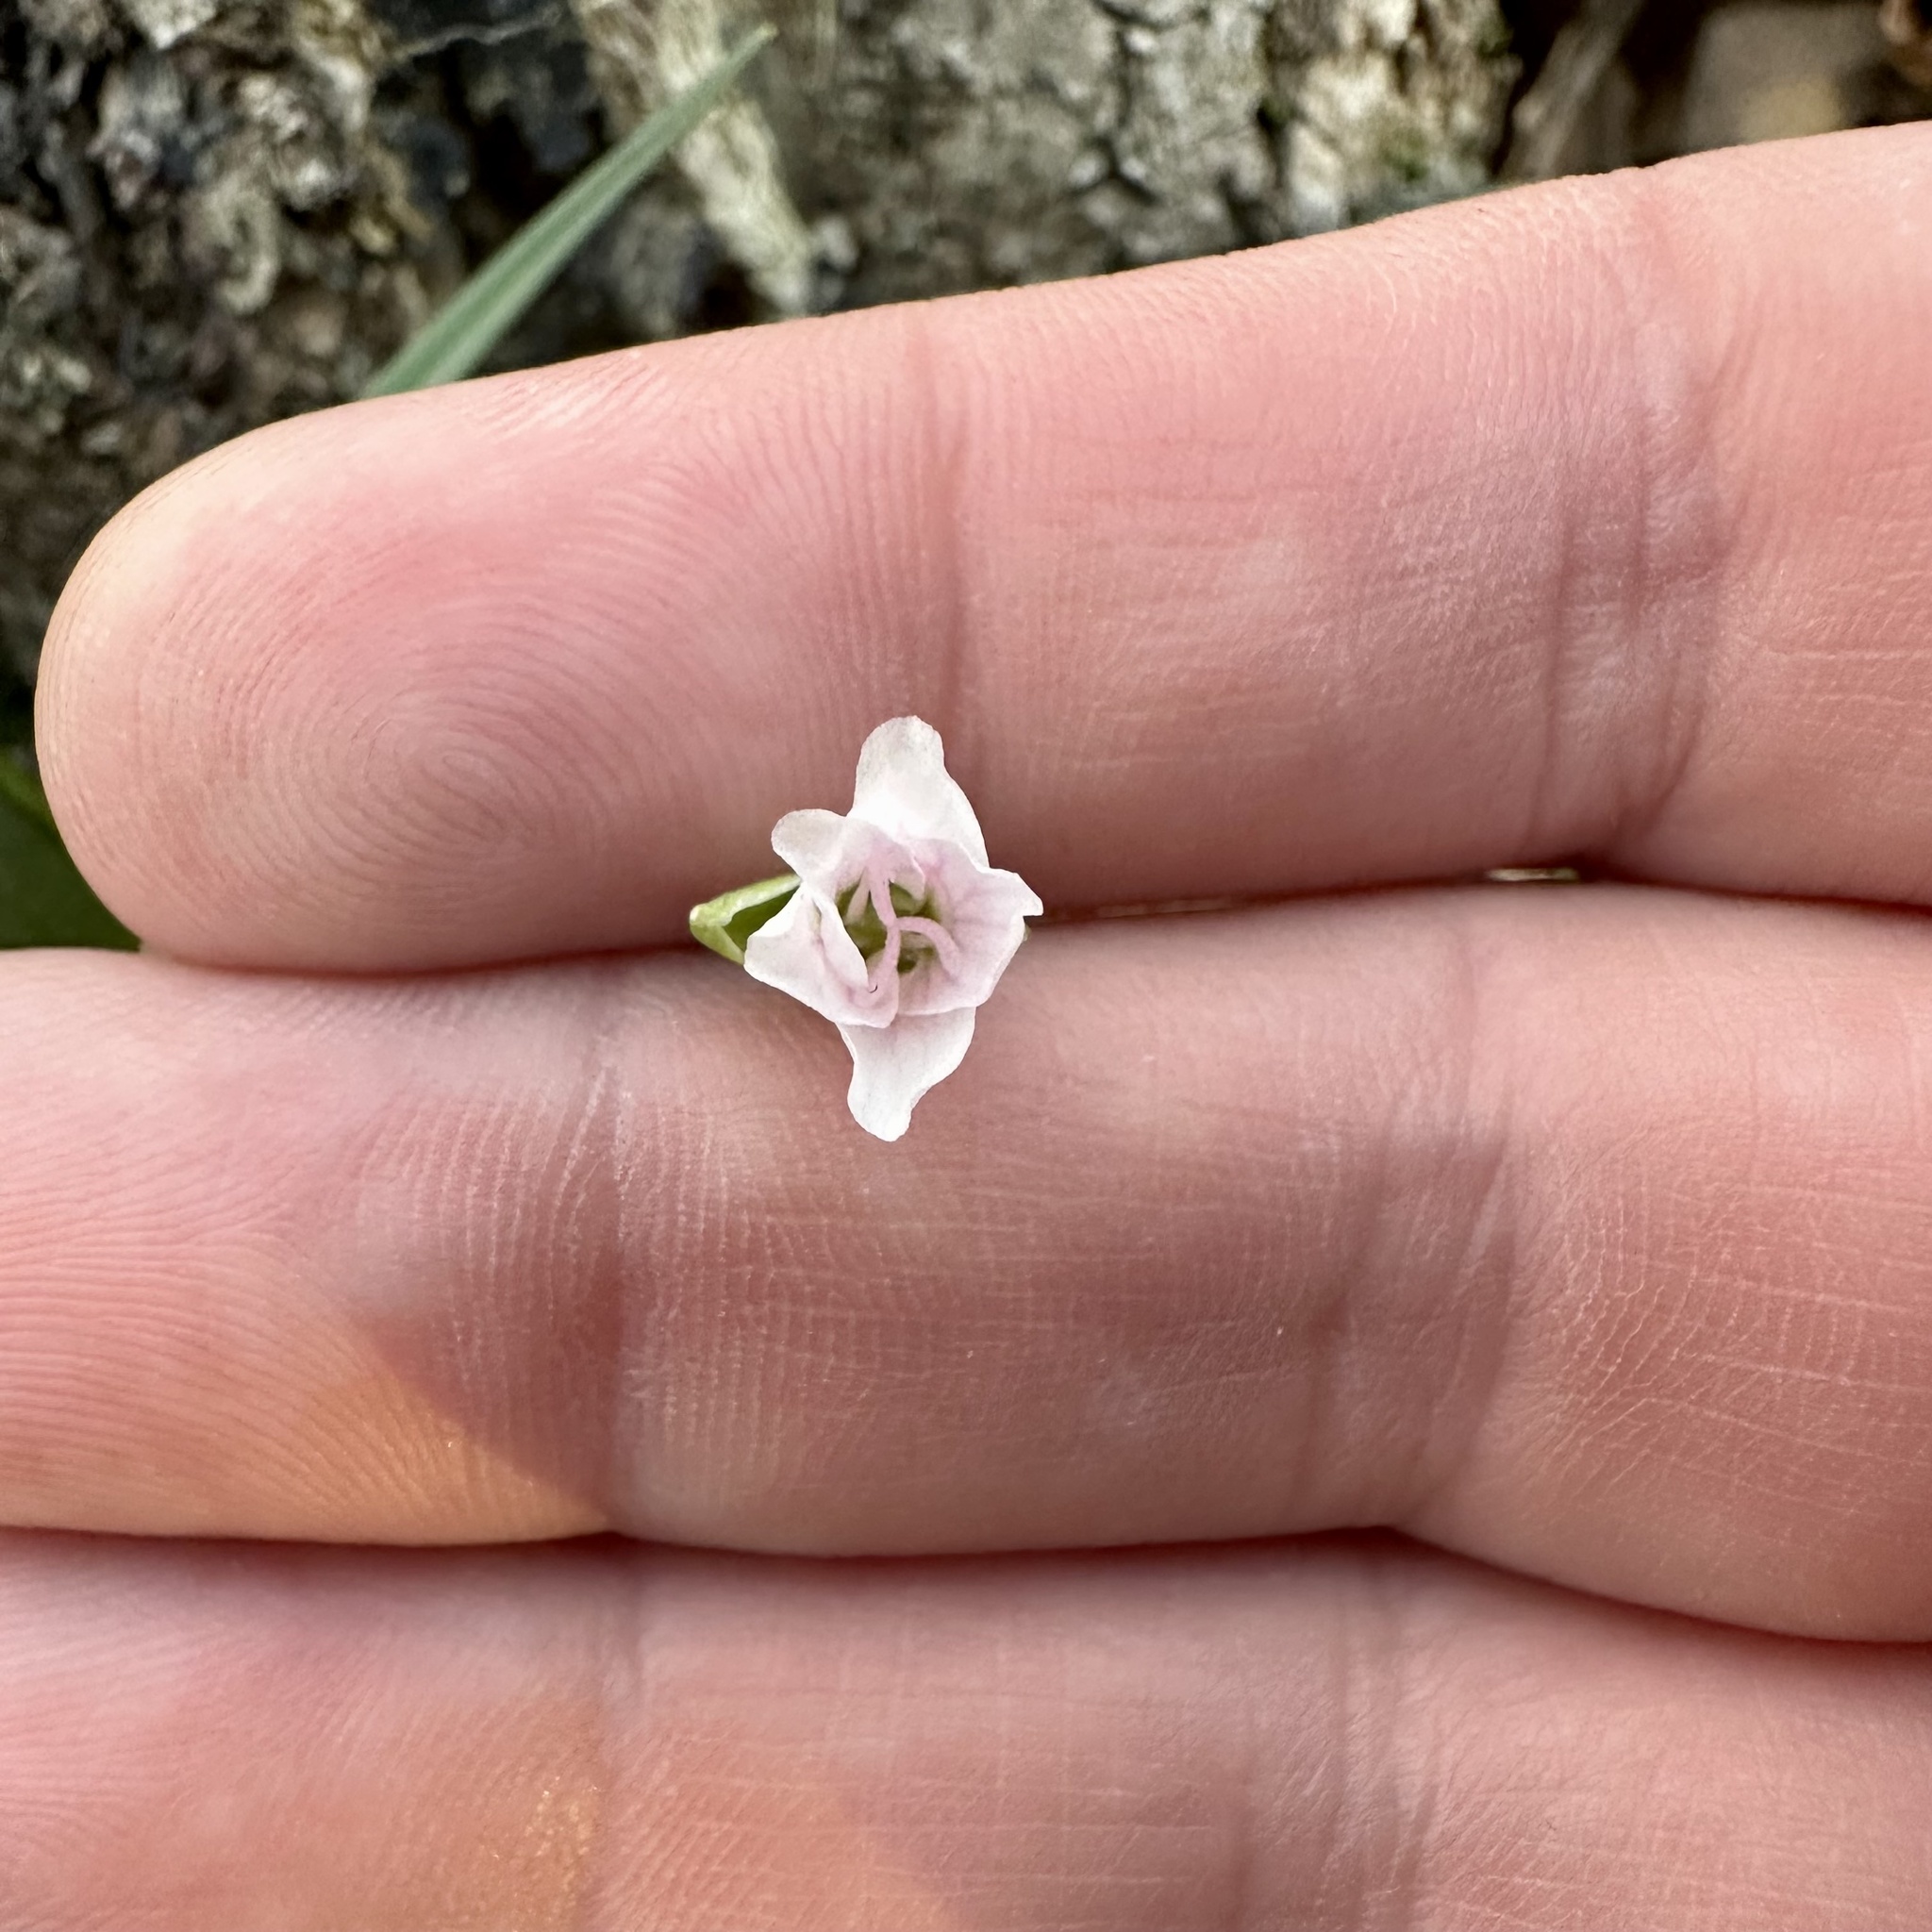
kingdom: Plantae
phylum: Tracheophyta
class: Magnoliopsida
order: Caryophyllales
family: Montiaceae
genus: Claytonia
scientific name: Claytonia virginica
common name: Virginia springbeauty
